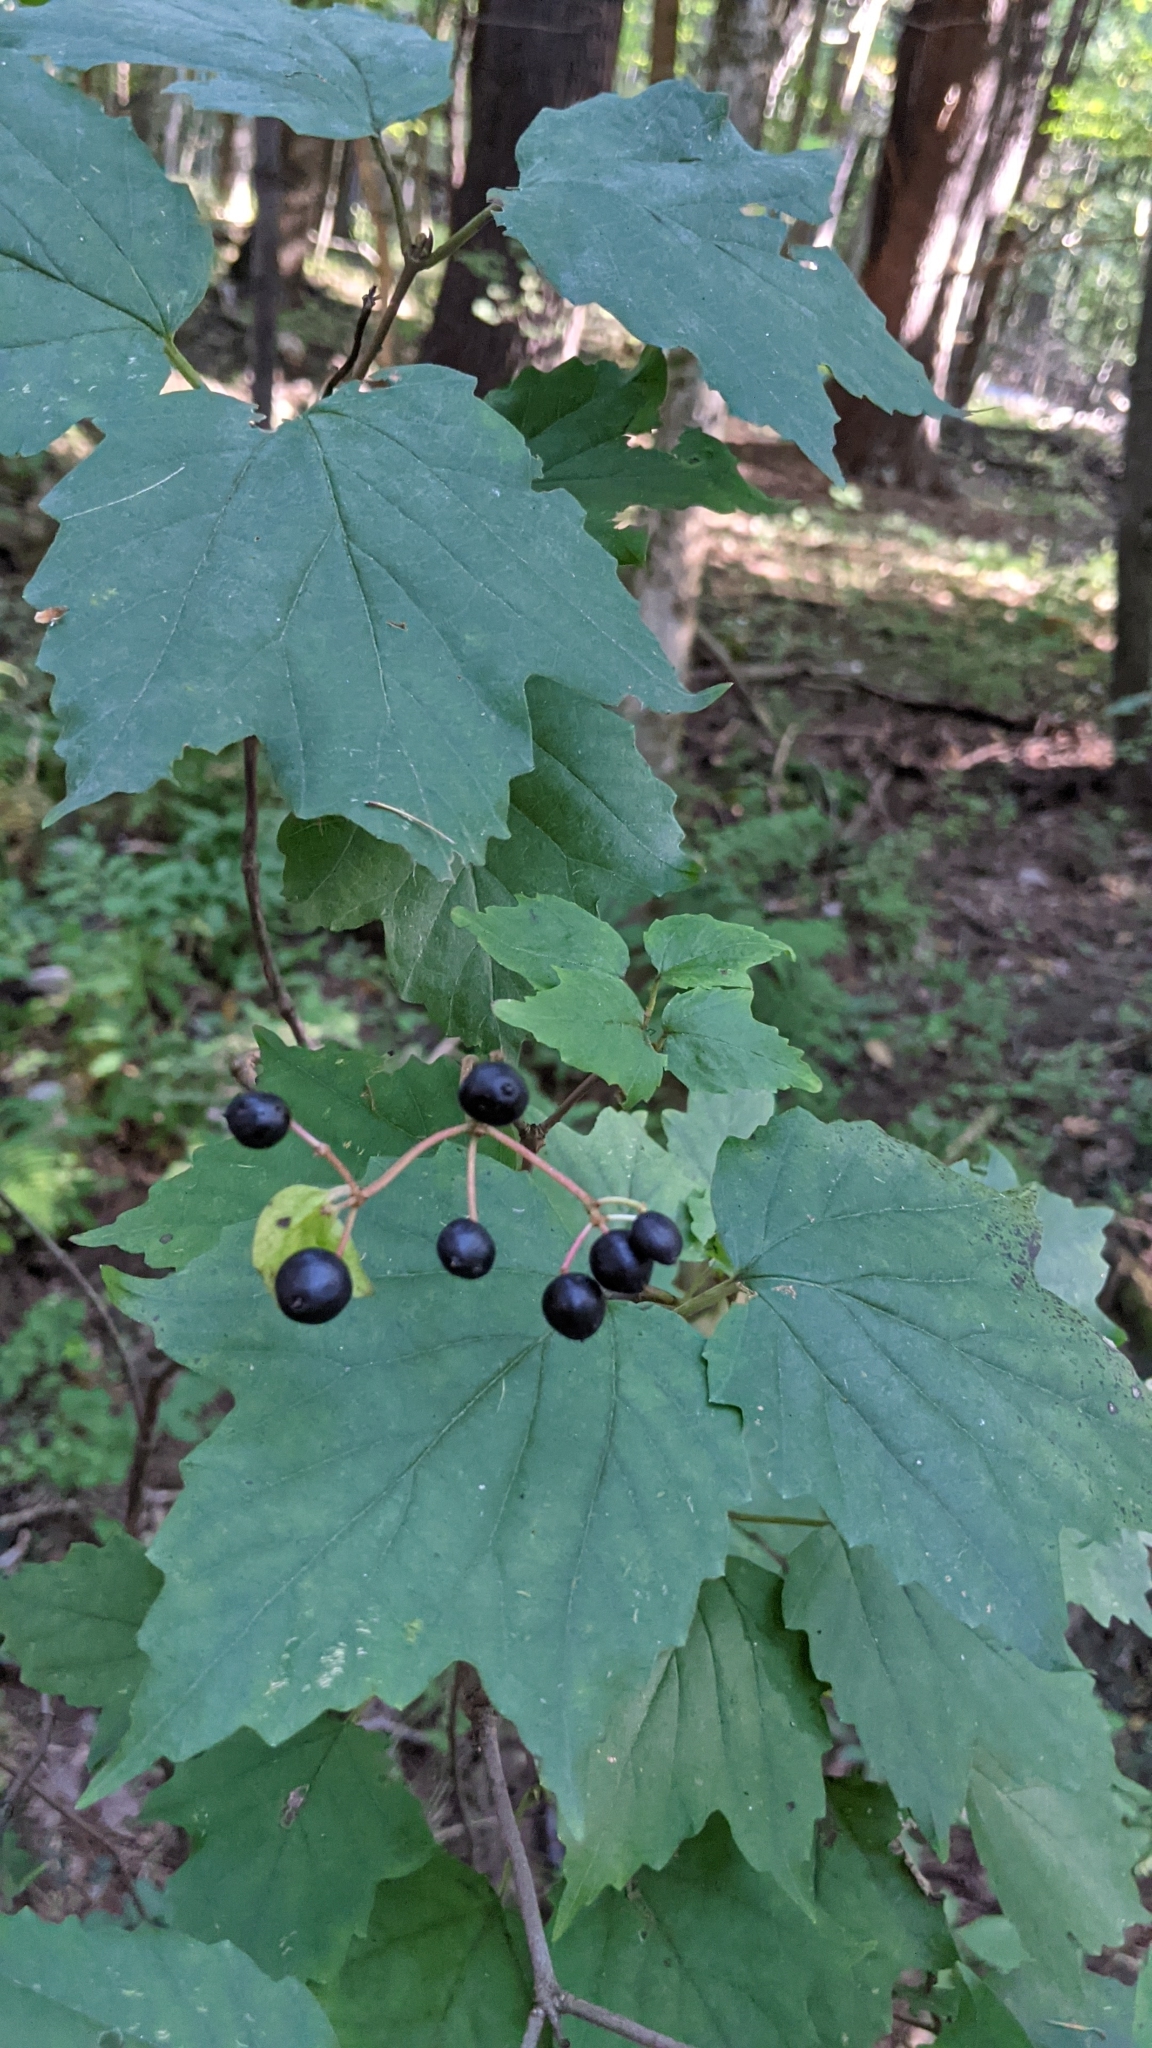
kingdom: Plantae
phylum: Tracheophyta
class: Magnoliopsida
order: Dipsacales
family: Viburnaceae
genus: Viburnum
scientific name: Viburnum acerifolium
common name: Dockmackie
